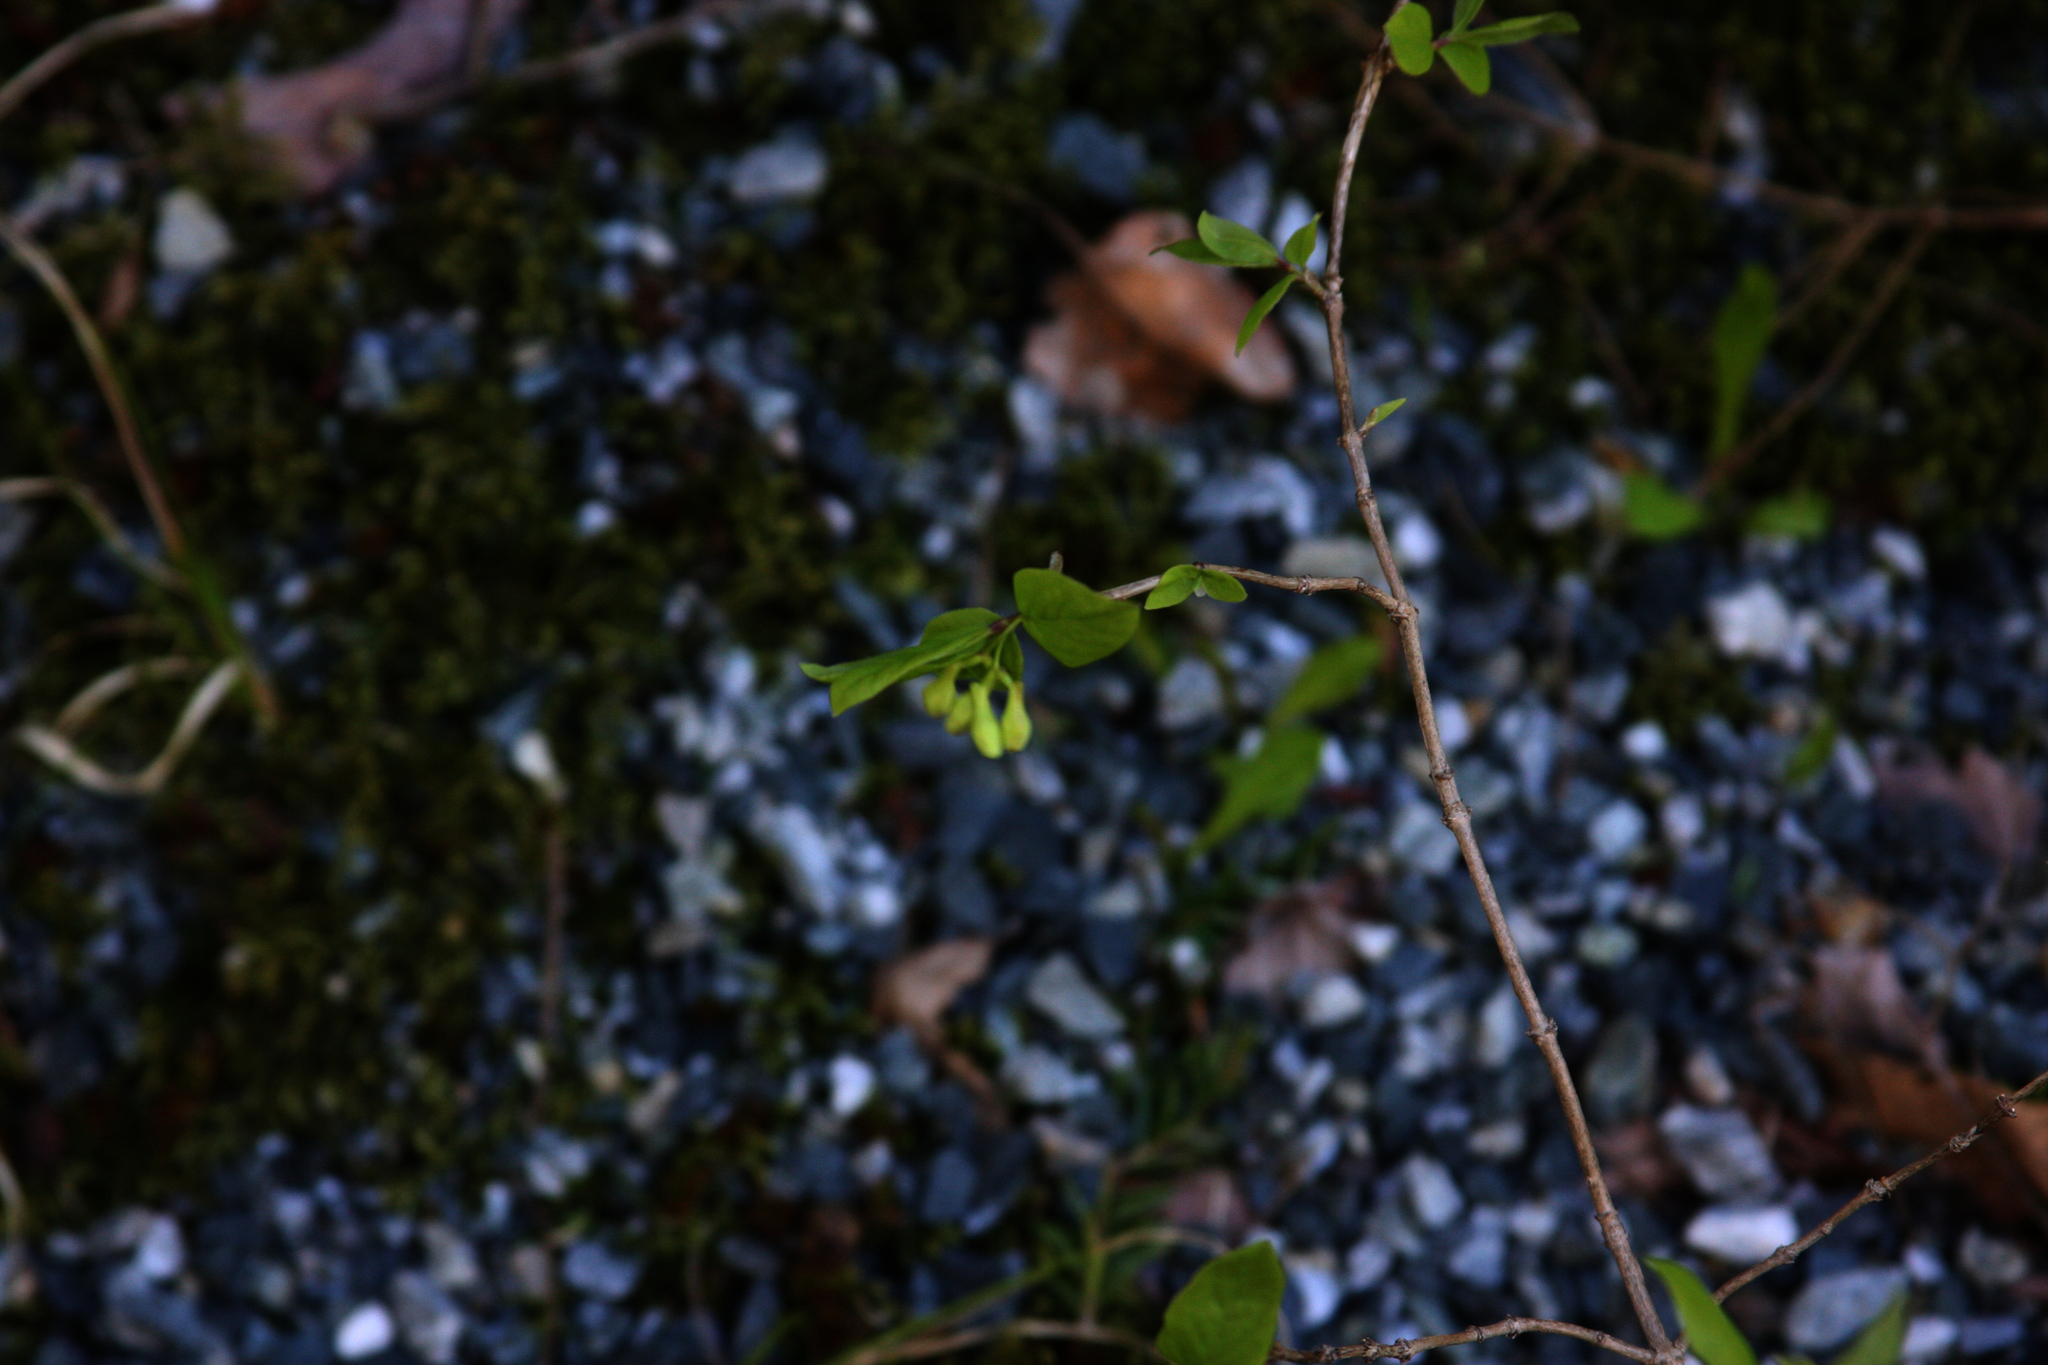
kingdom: Plantae
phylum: Tracheophyta
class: Magnoliopsida
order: Dipsacales
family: Caprifoliaceae
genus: Lonicera
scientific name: Lonicera canadensis
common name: American fly-honeysuckle
